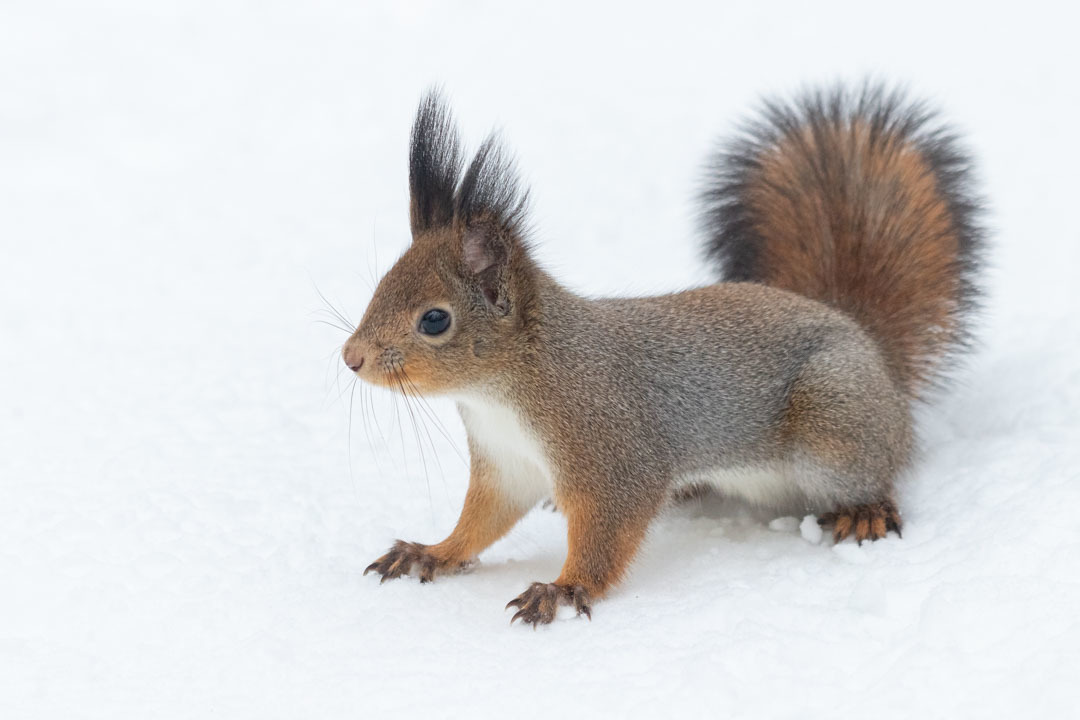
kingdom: Animalia
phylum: Chordata
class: Mammalia
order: Rodentia
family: Sciuridae
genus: Sciurus
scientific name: Sciurus vulgaris
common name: Eurasian red squirrel
